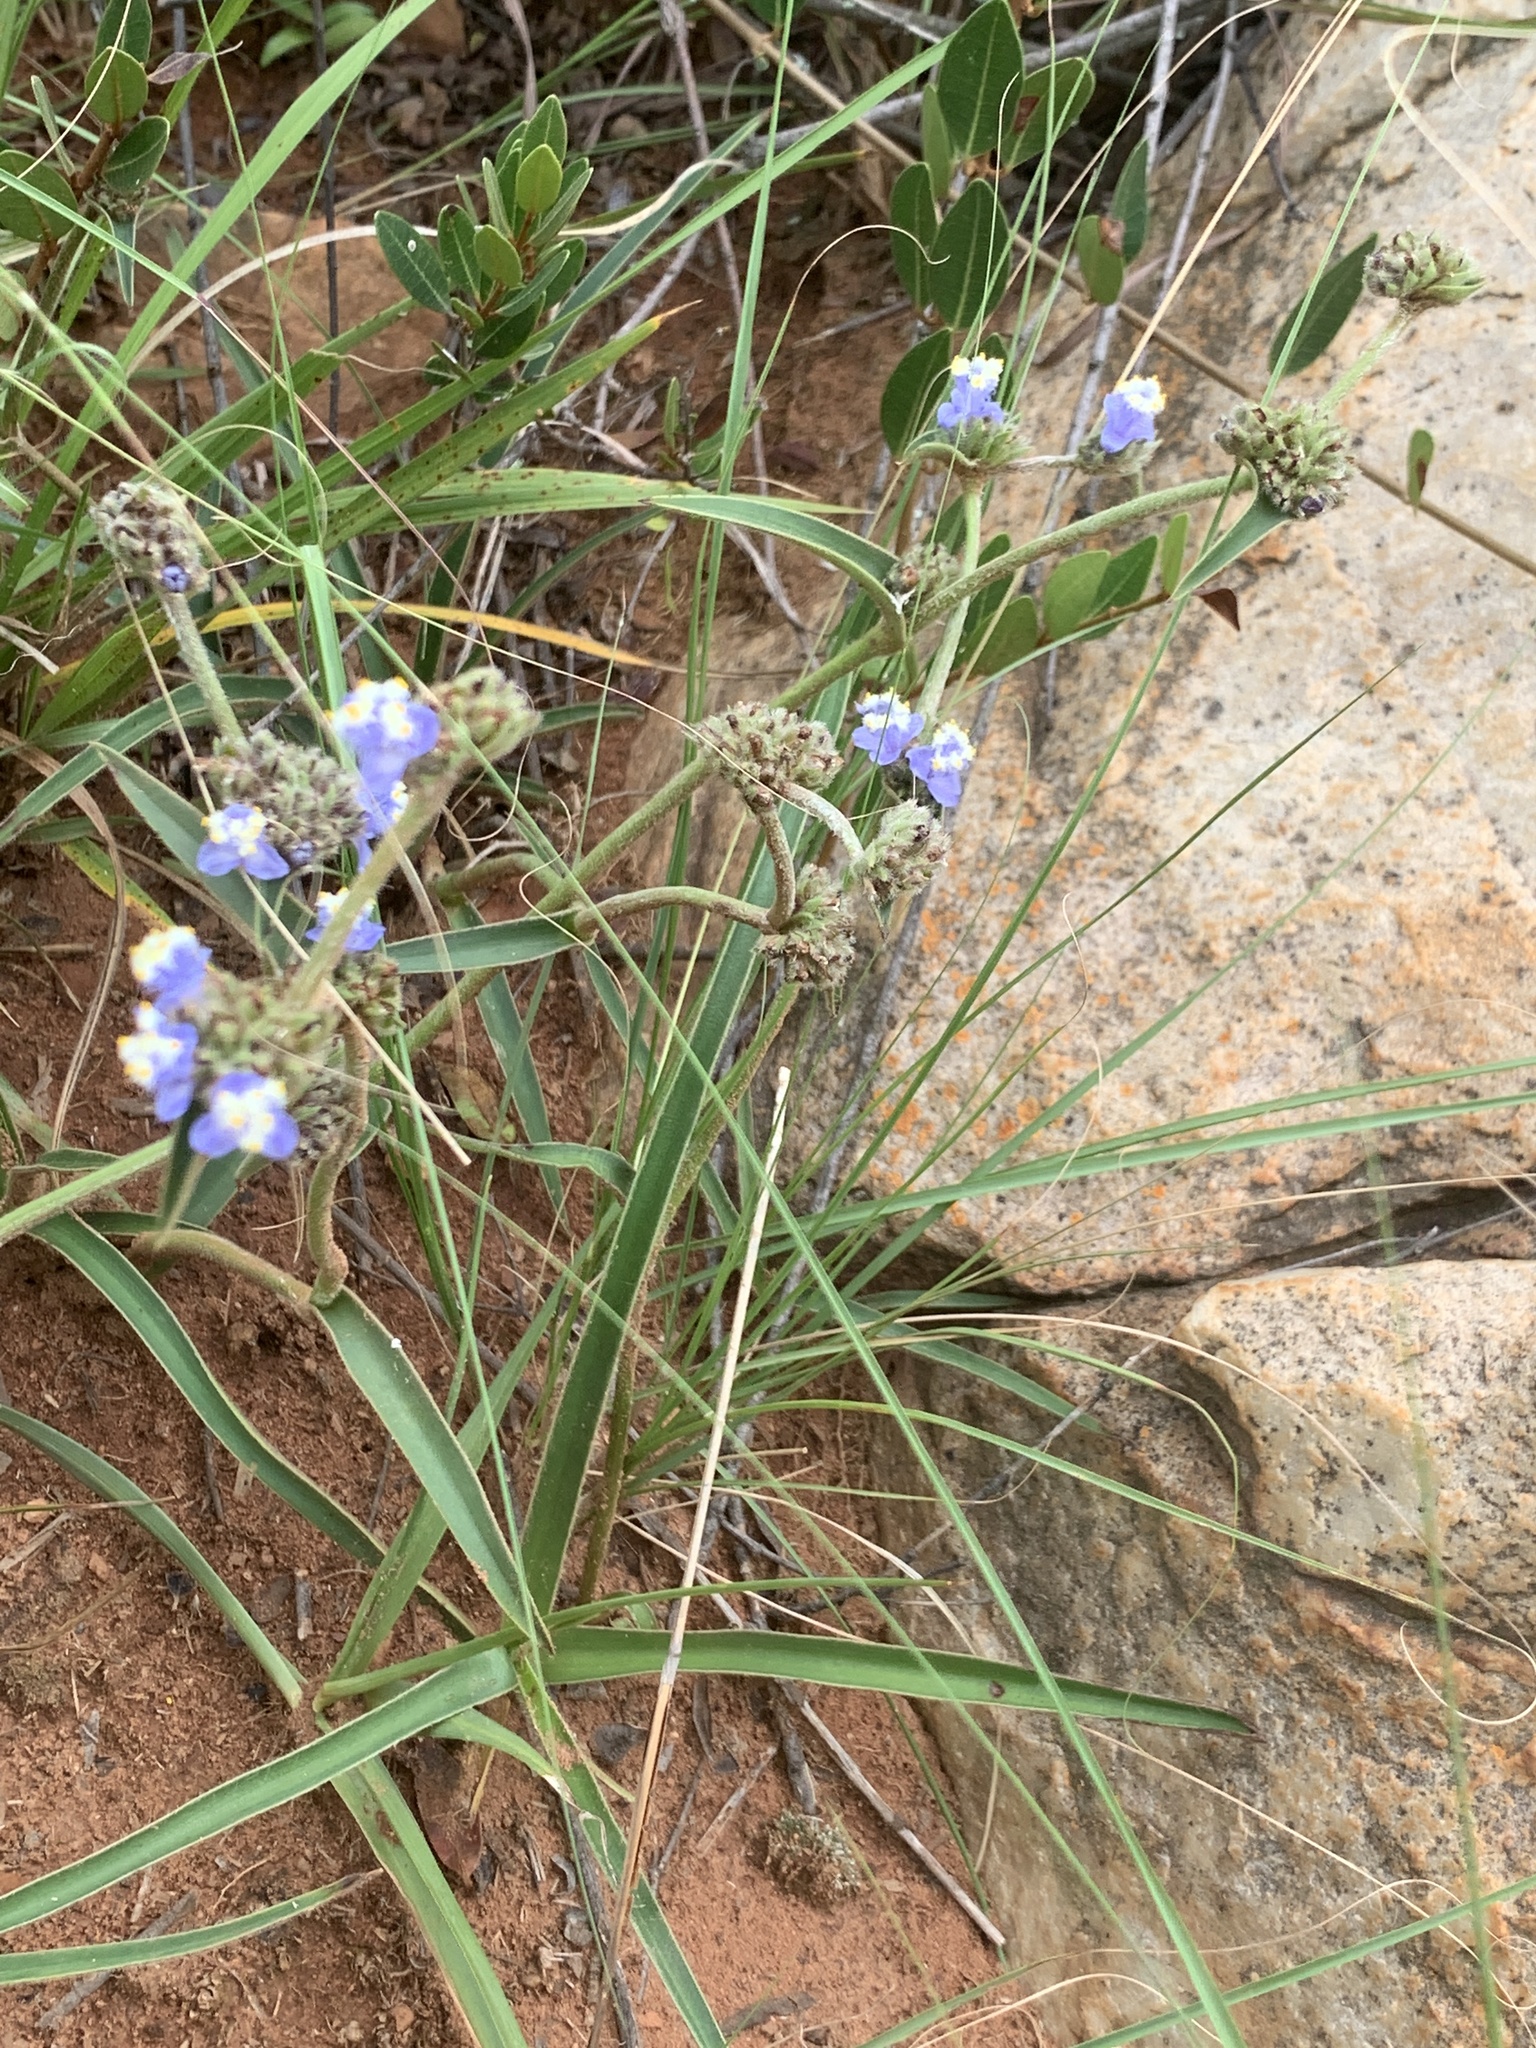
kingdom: Plantae
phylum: Tracheophyta
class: Liliopsida
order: Commelinales
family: Commelinaceae
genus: Cyanotis
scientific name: Cyanotis speciosa
